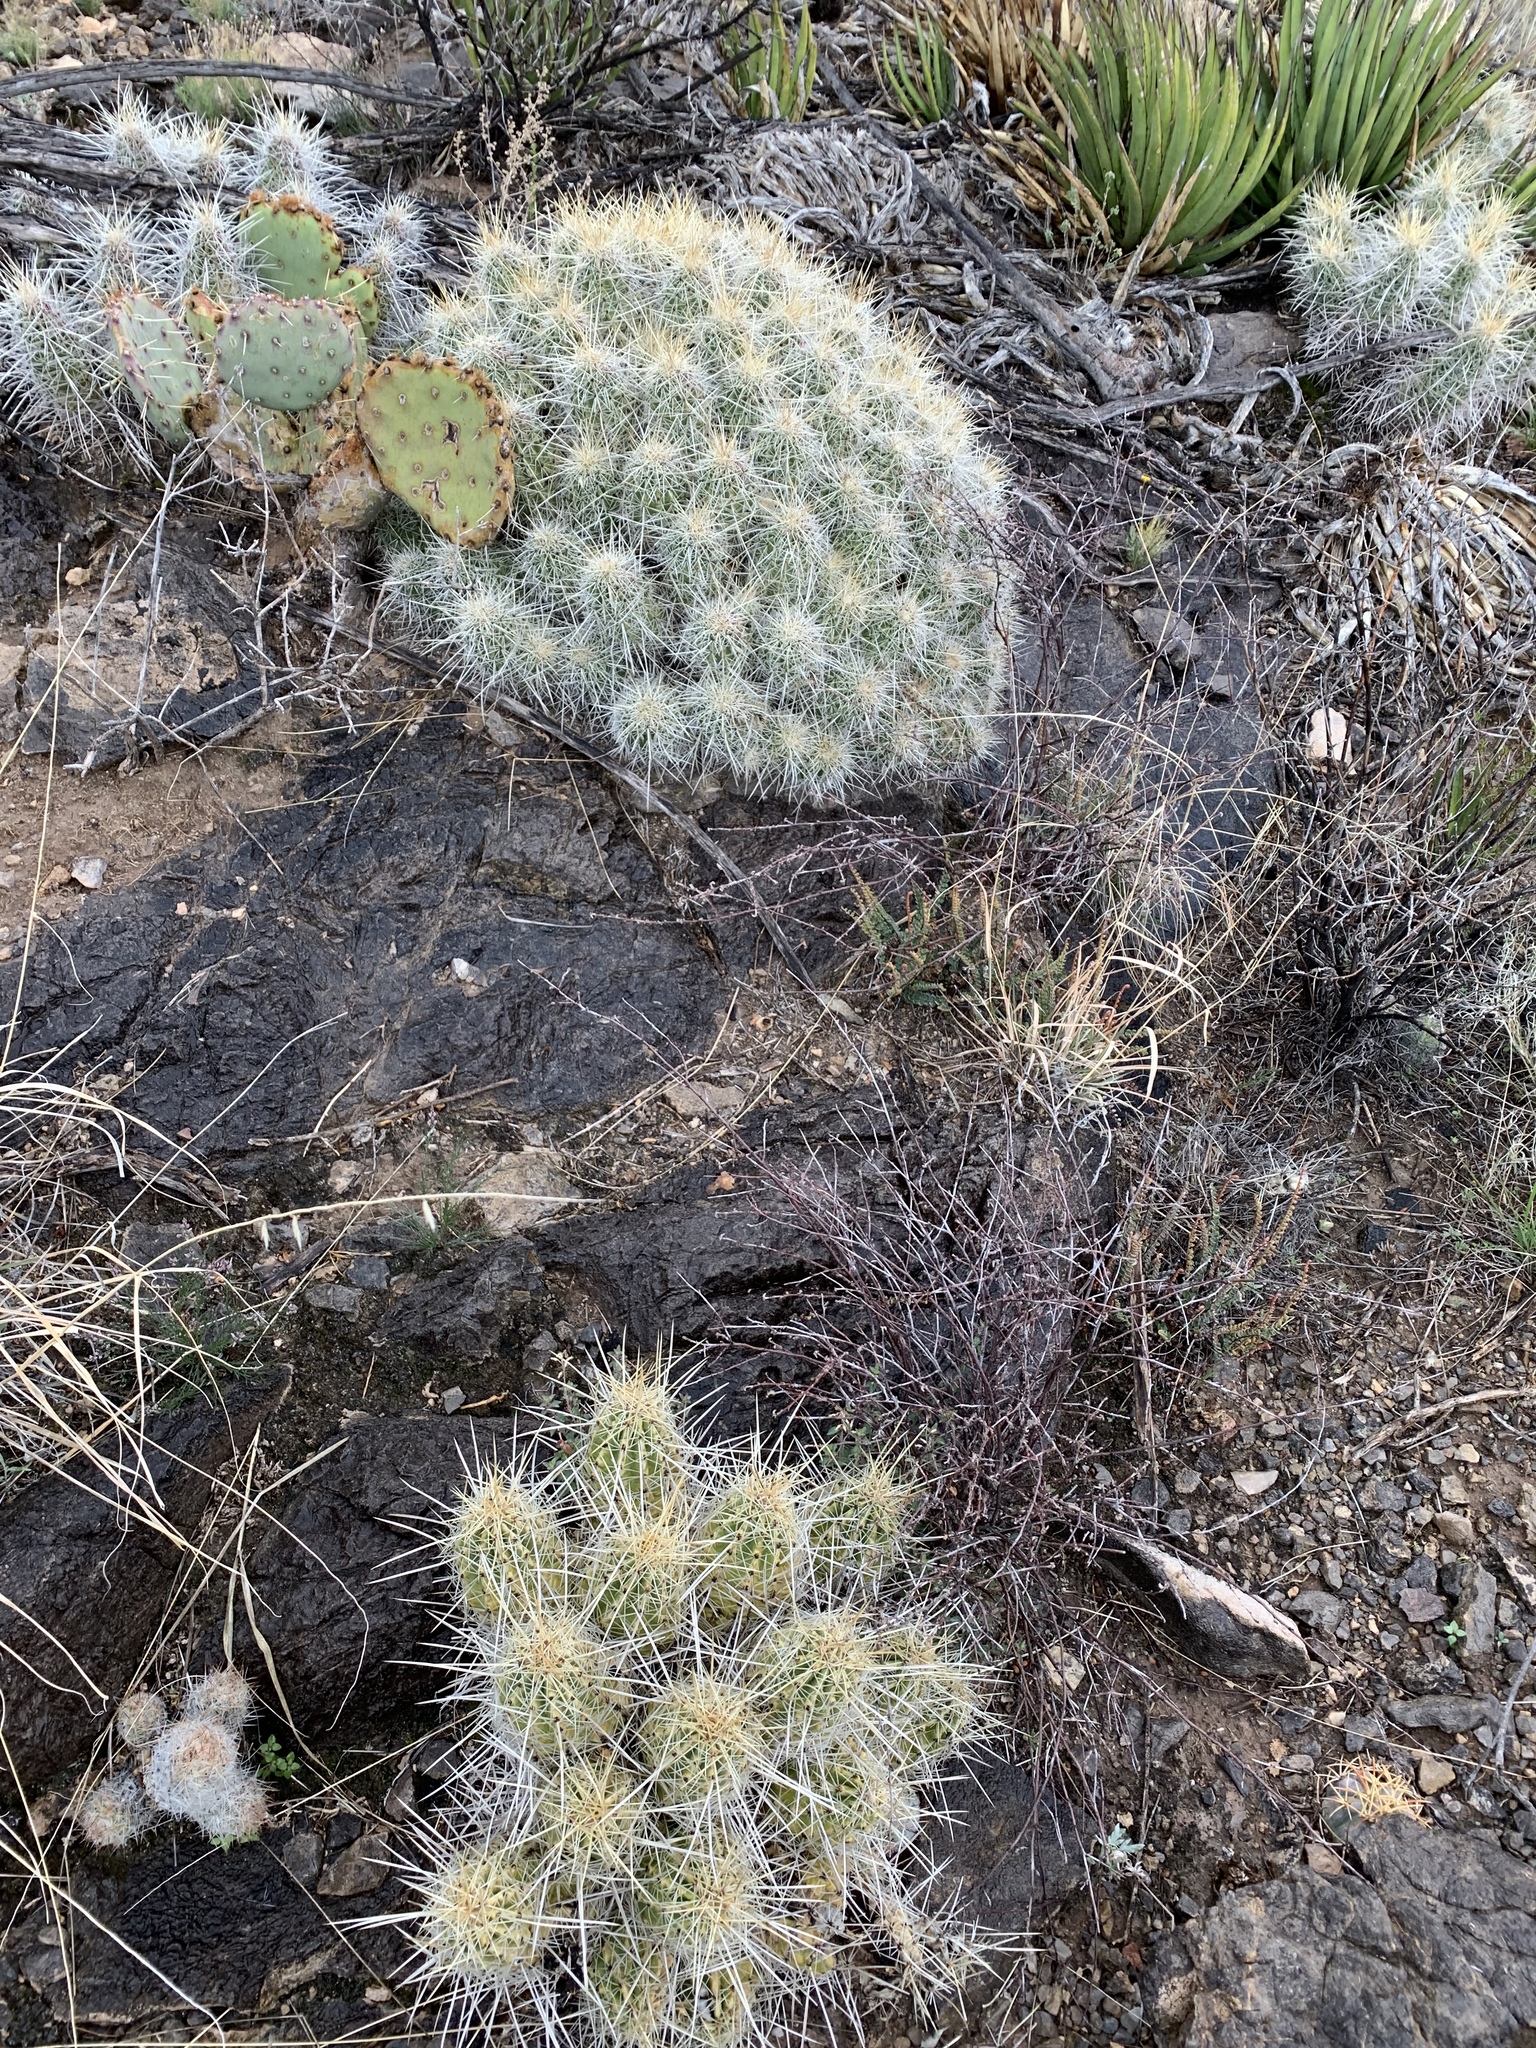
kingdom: Plantae
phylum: Tracheophyta
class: Magnoliopsida
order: Caryophyllales
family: Cactaceae
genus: Echinocereus
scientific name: Echinocereus stramineus
